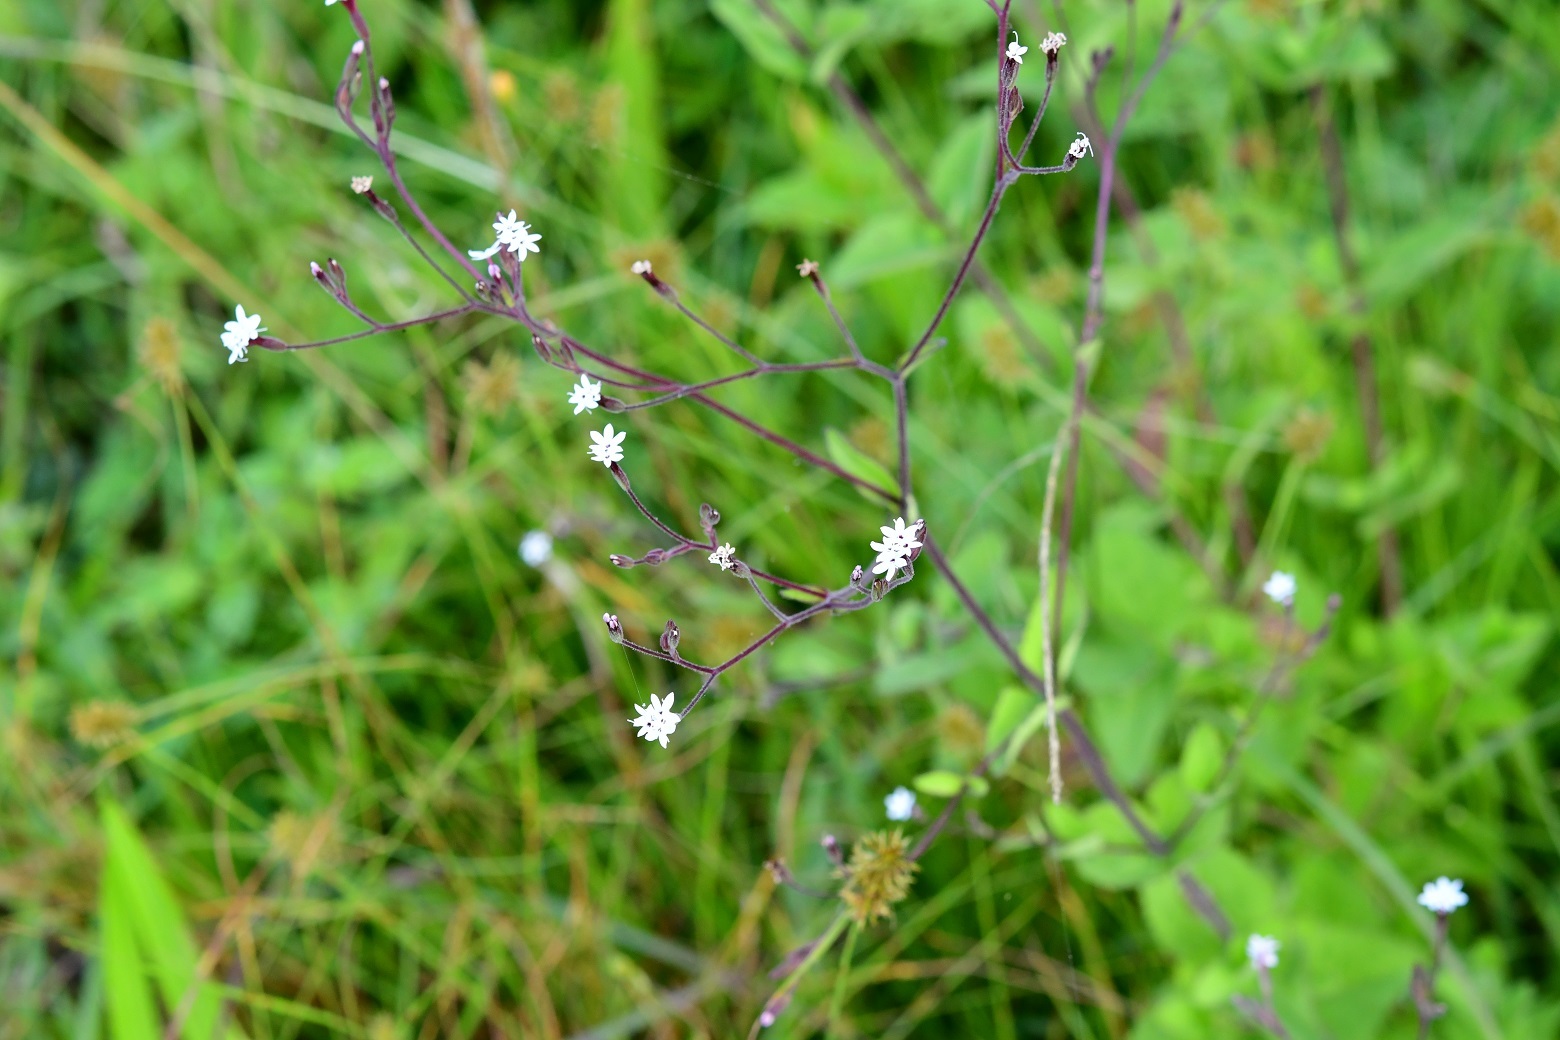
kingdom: Plantae
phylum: Tracheophyta
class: Magnoliopsida
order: Asterales
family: Asteraceae
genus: Stevia
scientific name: Stevia elatior
